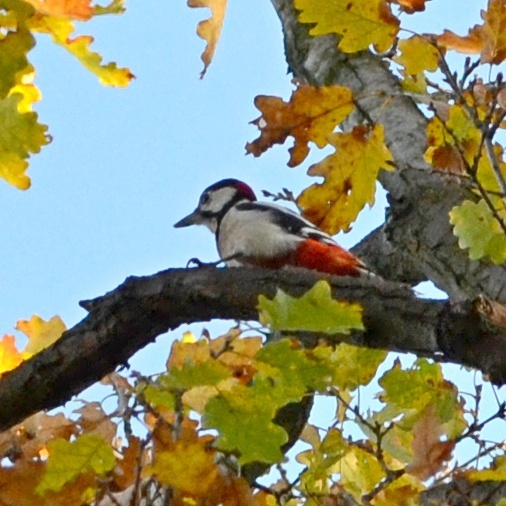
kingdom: Animalia
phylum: Chordata
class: Aves
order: Piciformes
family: Picidae
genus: Dendrocopos
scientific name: Dendrocopos major
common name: Great spotted woodpecker
